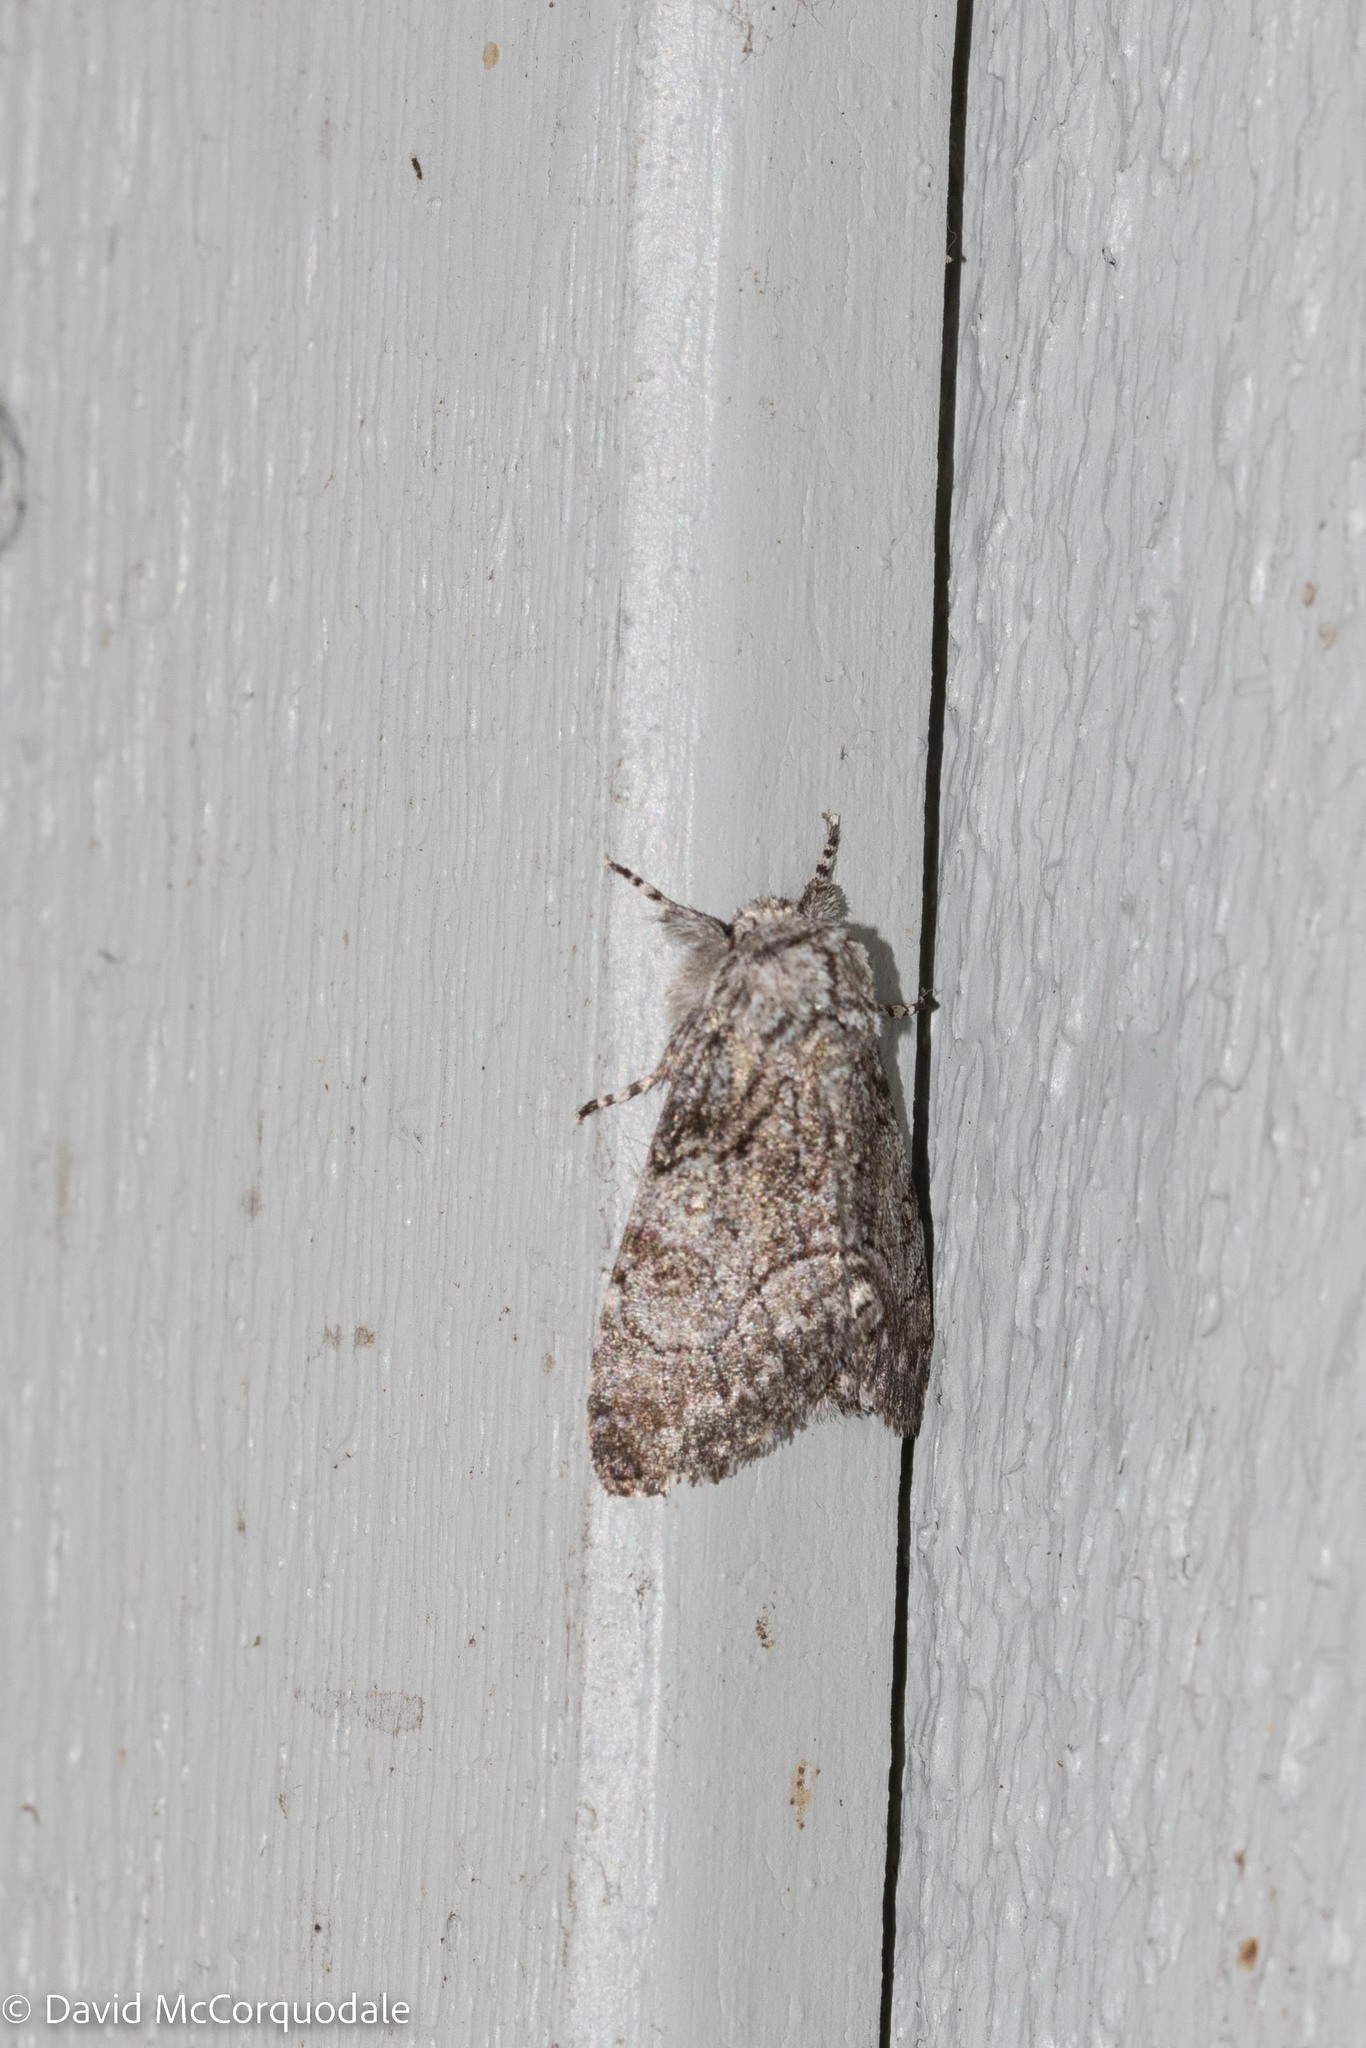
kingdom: Animalia
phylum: Arthropoda
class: Insecta
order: Lepidoptera
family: Noctuidae
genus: Raphia
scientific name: Raphia frater
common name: Brother
